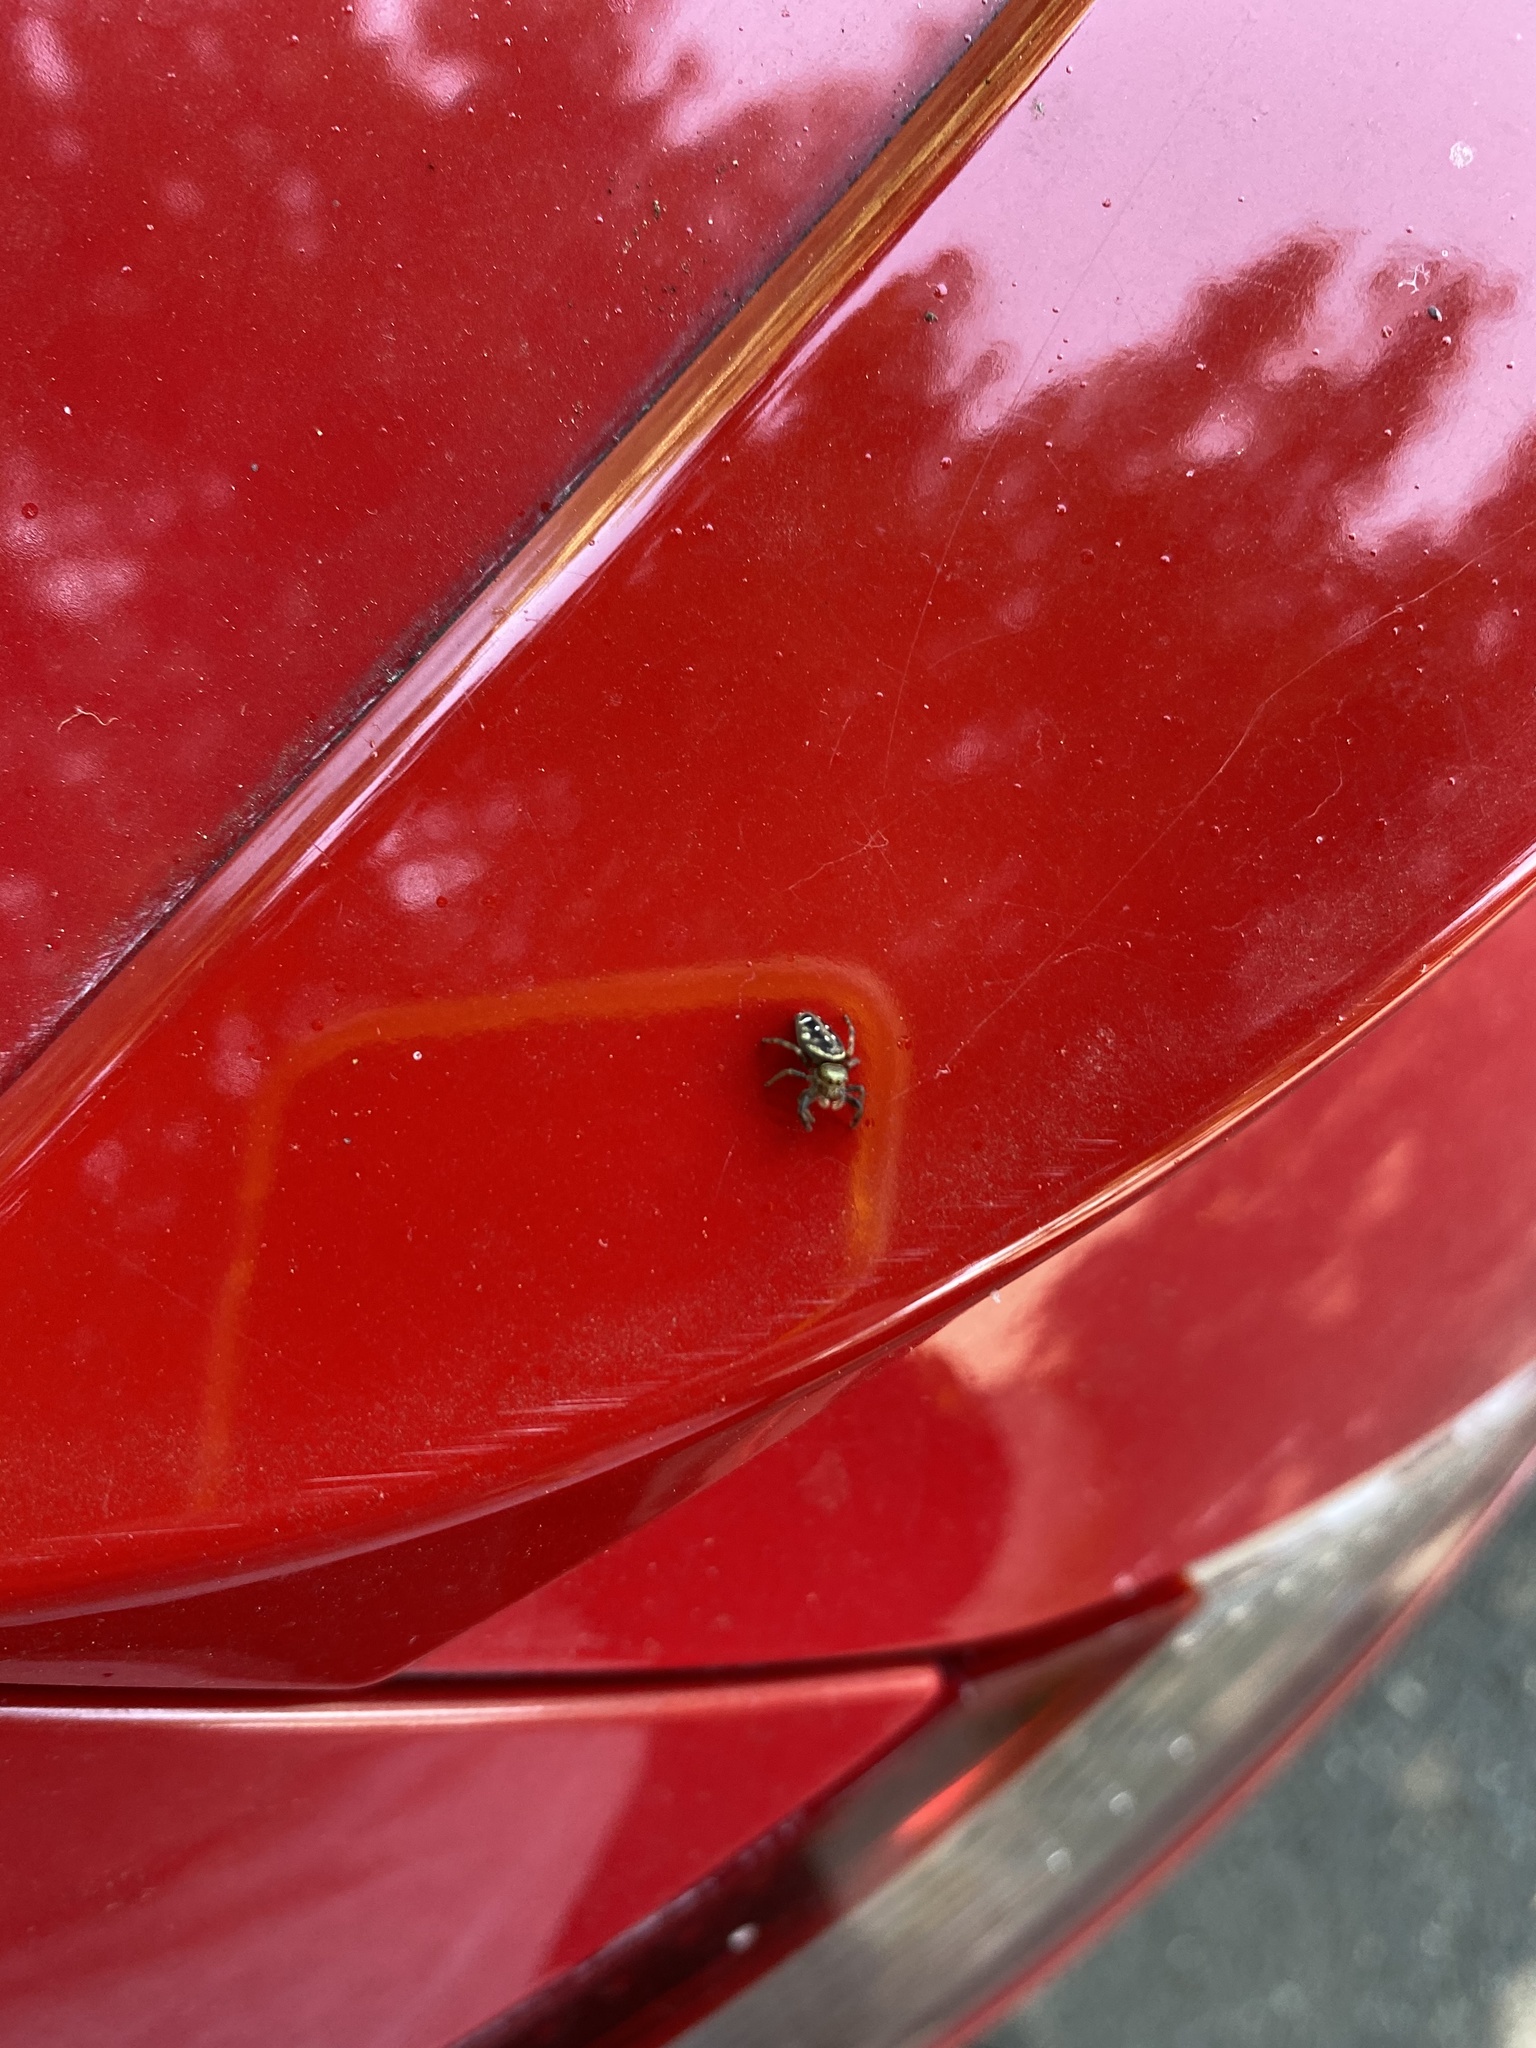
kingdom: Animalia
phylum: Arthropoda
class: Arachnida
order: Araneae
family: Salticidae
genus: Paraphidippus
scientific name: Paraphidippus aurantius
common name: Jumping spiders
